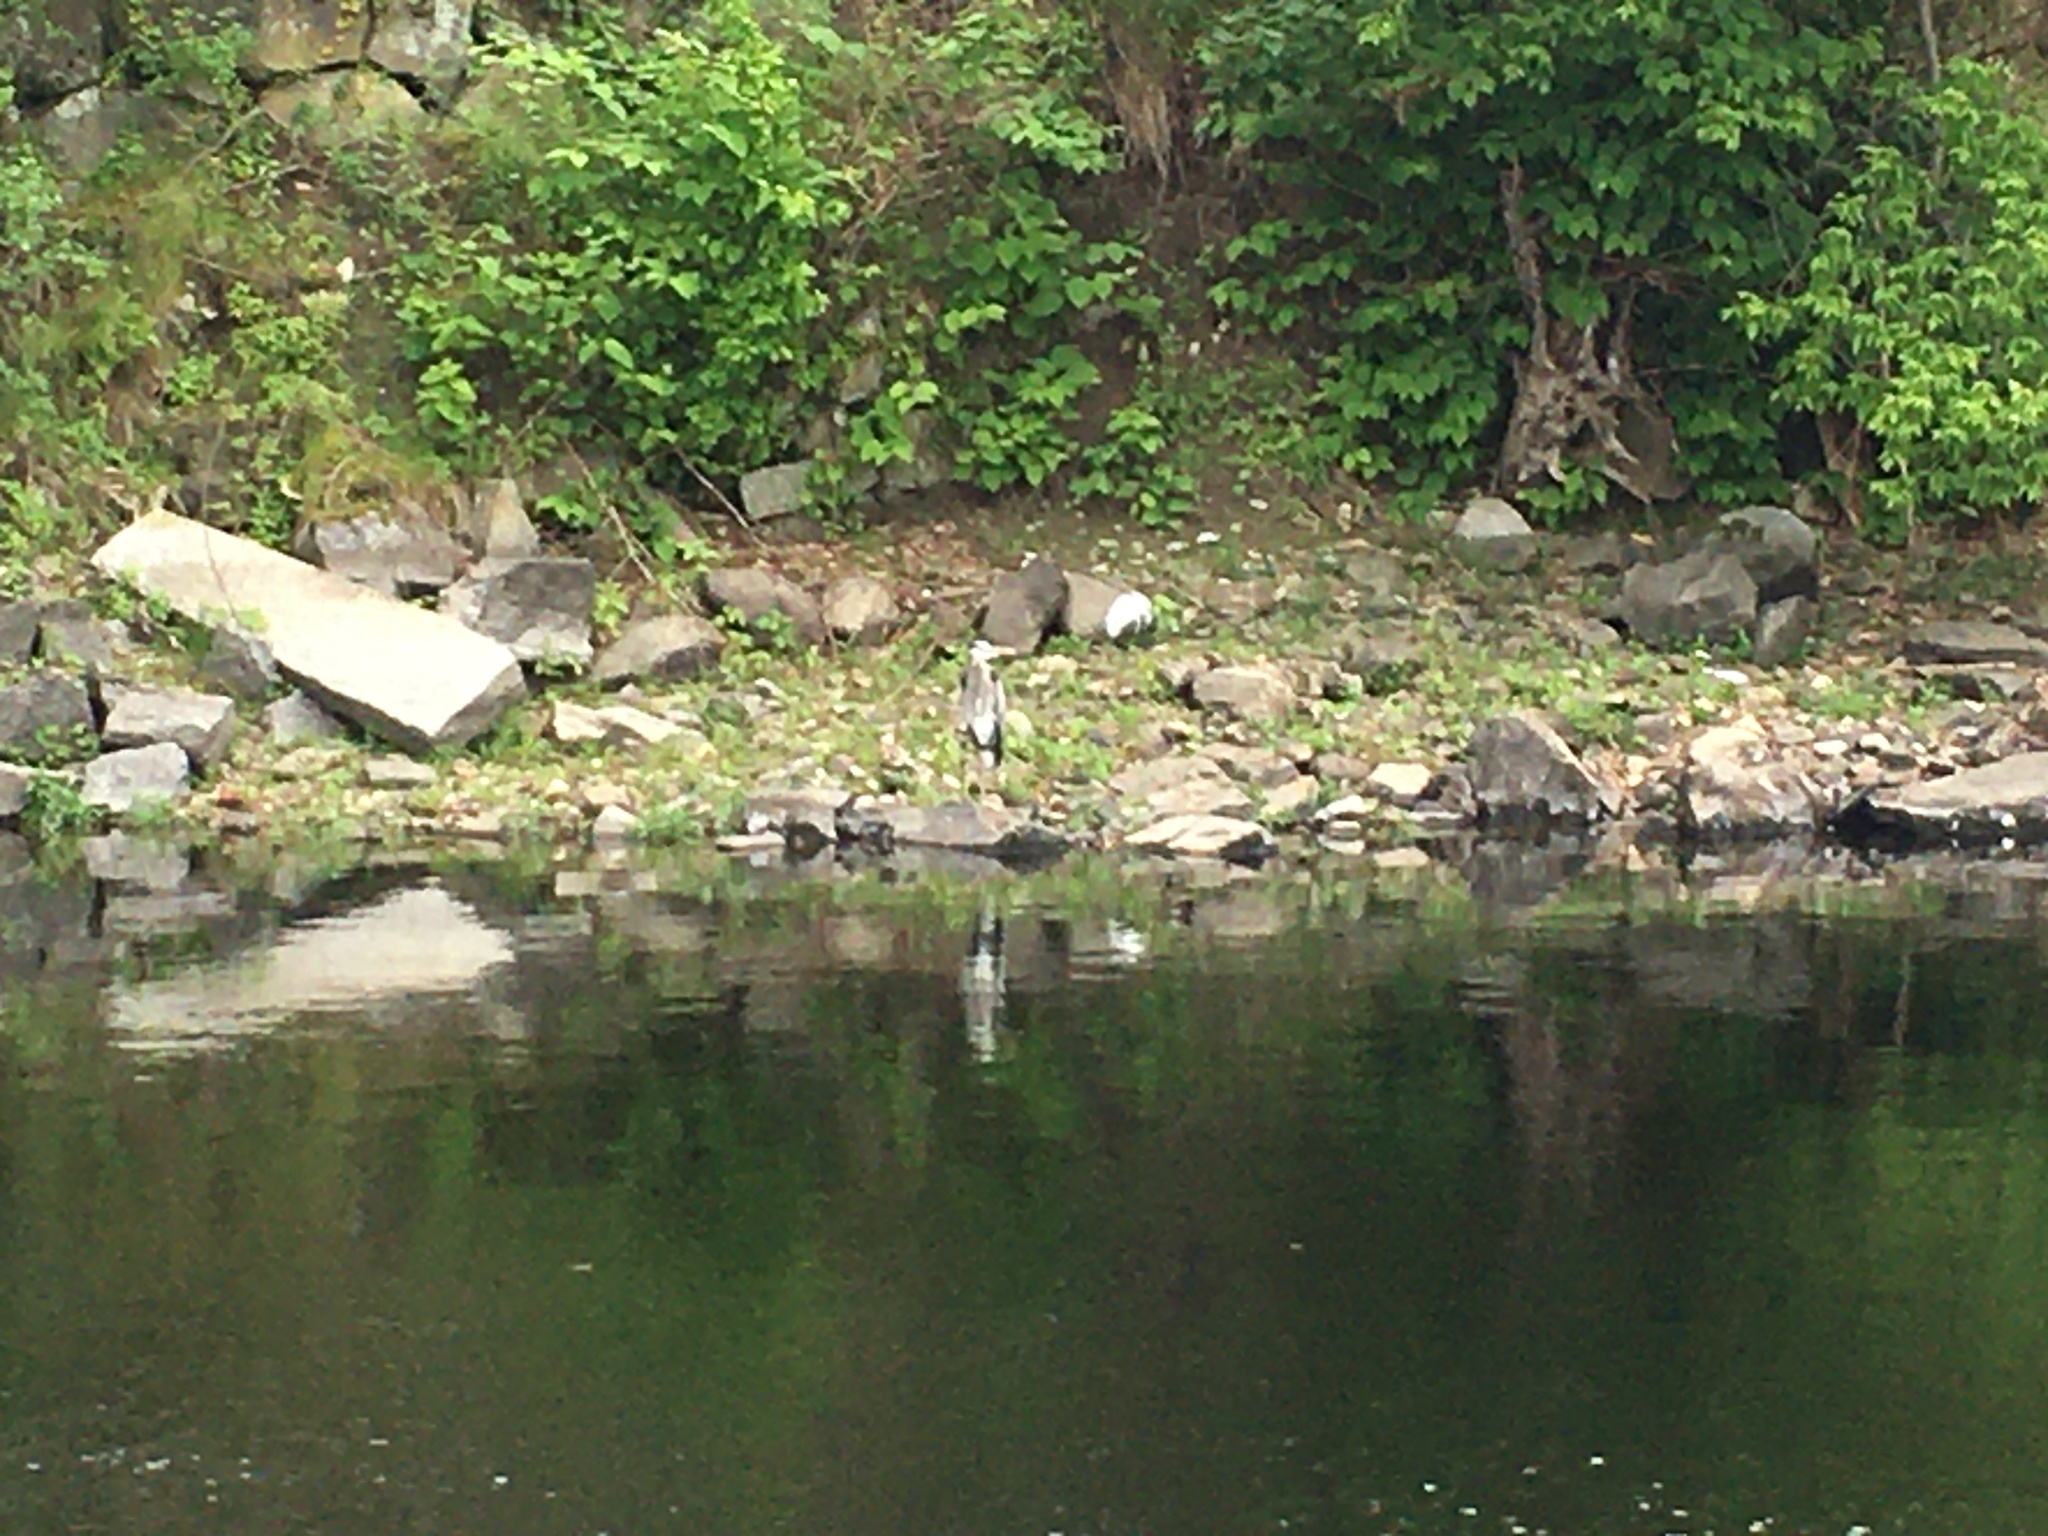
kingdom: Animalia
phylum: Chordata
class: Aves
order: Pelecaniformes
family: Ardeidae
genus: Ardea
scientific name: Ardea herodias
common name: Great blue heron
